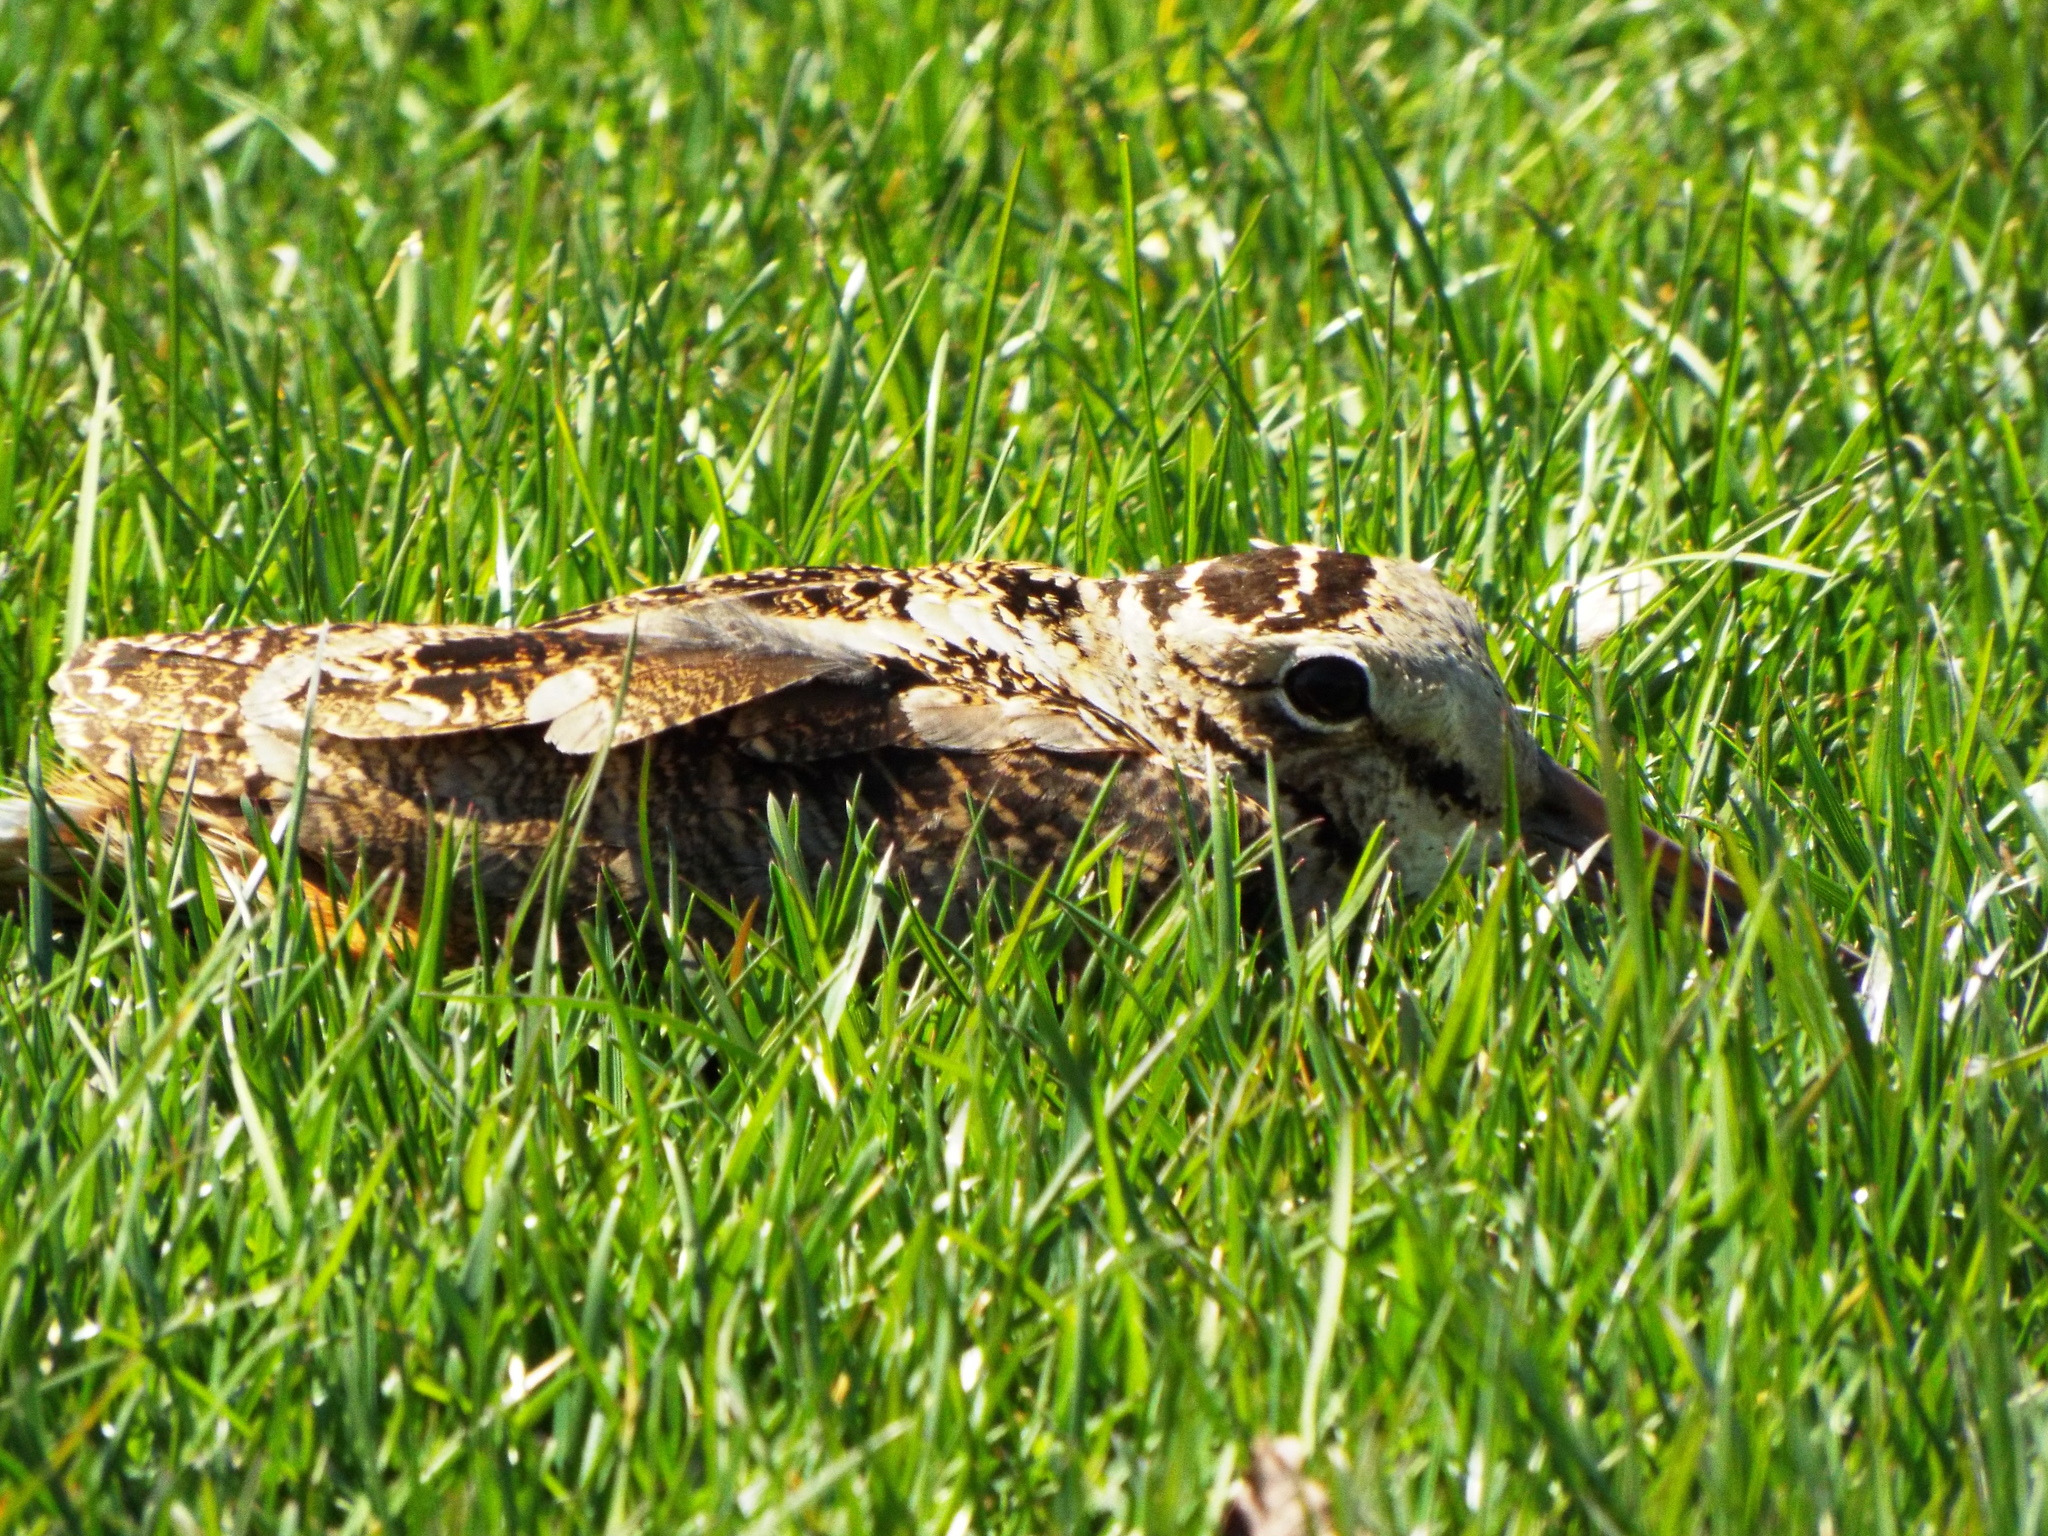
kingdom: Animalia
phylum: Chordata
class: Aves
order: Charadriiformes
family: Scolopacidae
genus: Scolopax
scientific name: Scolopax minor
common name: American woodcock
